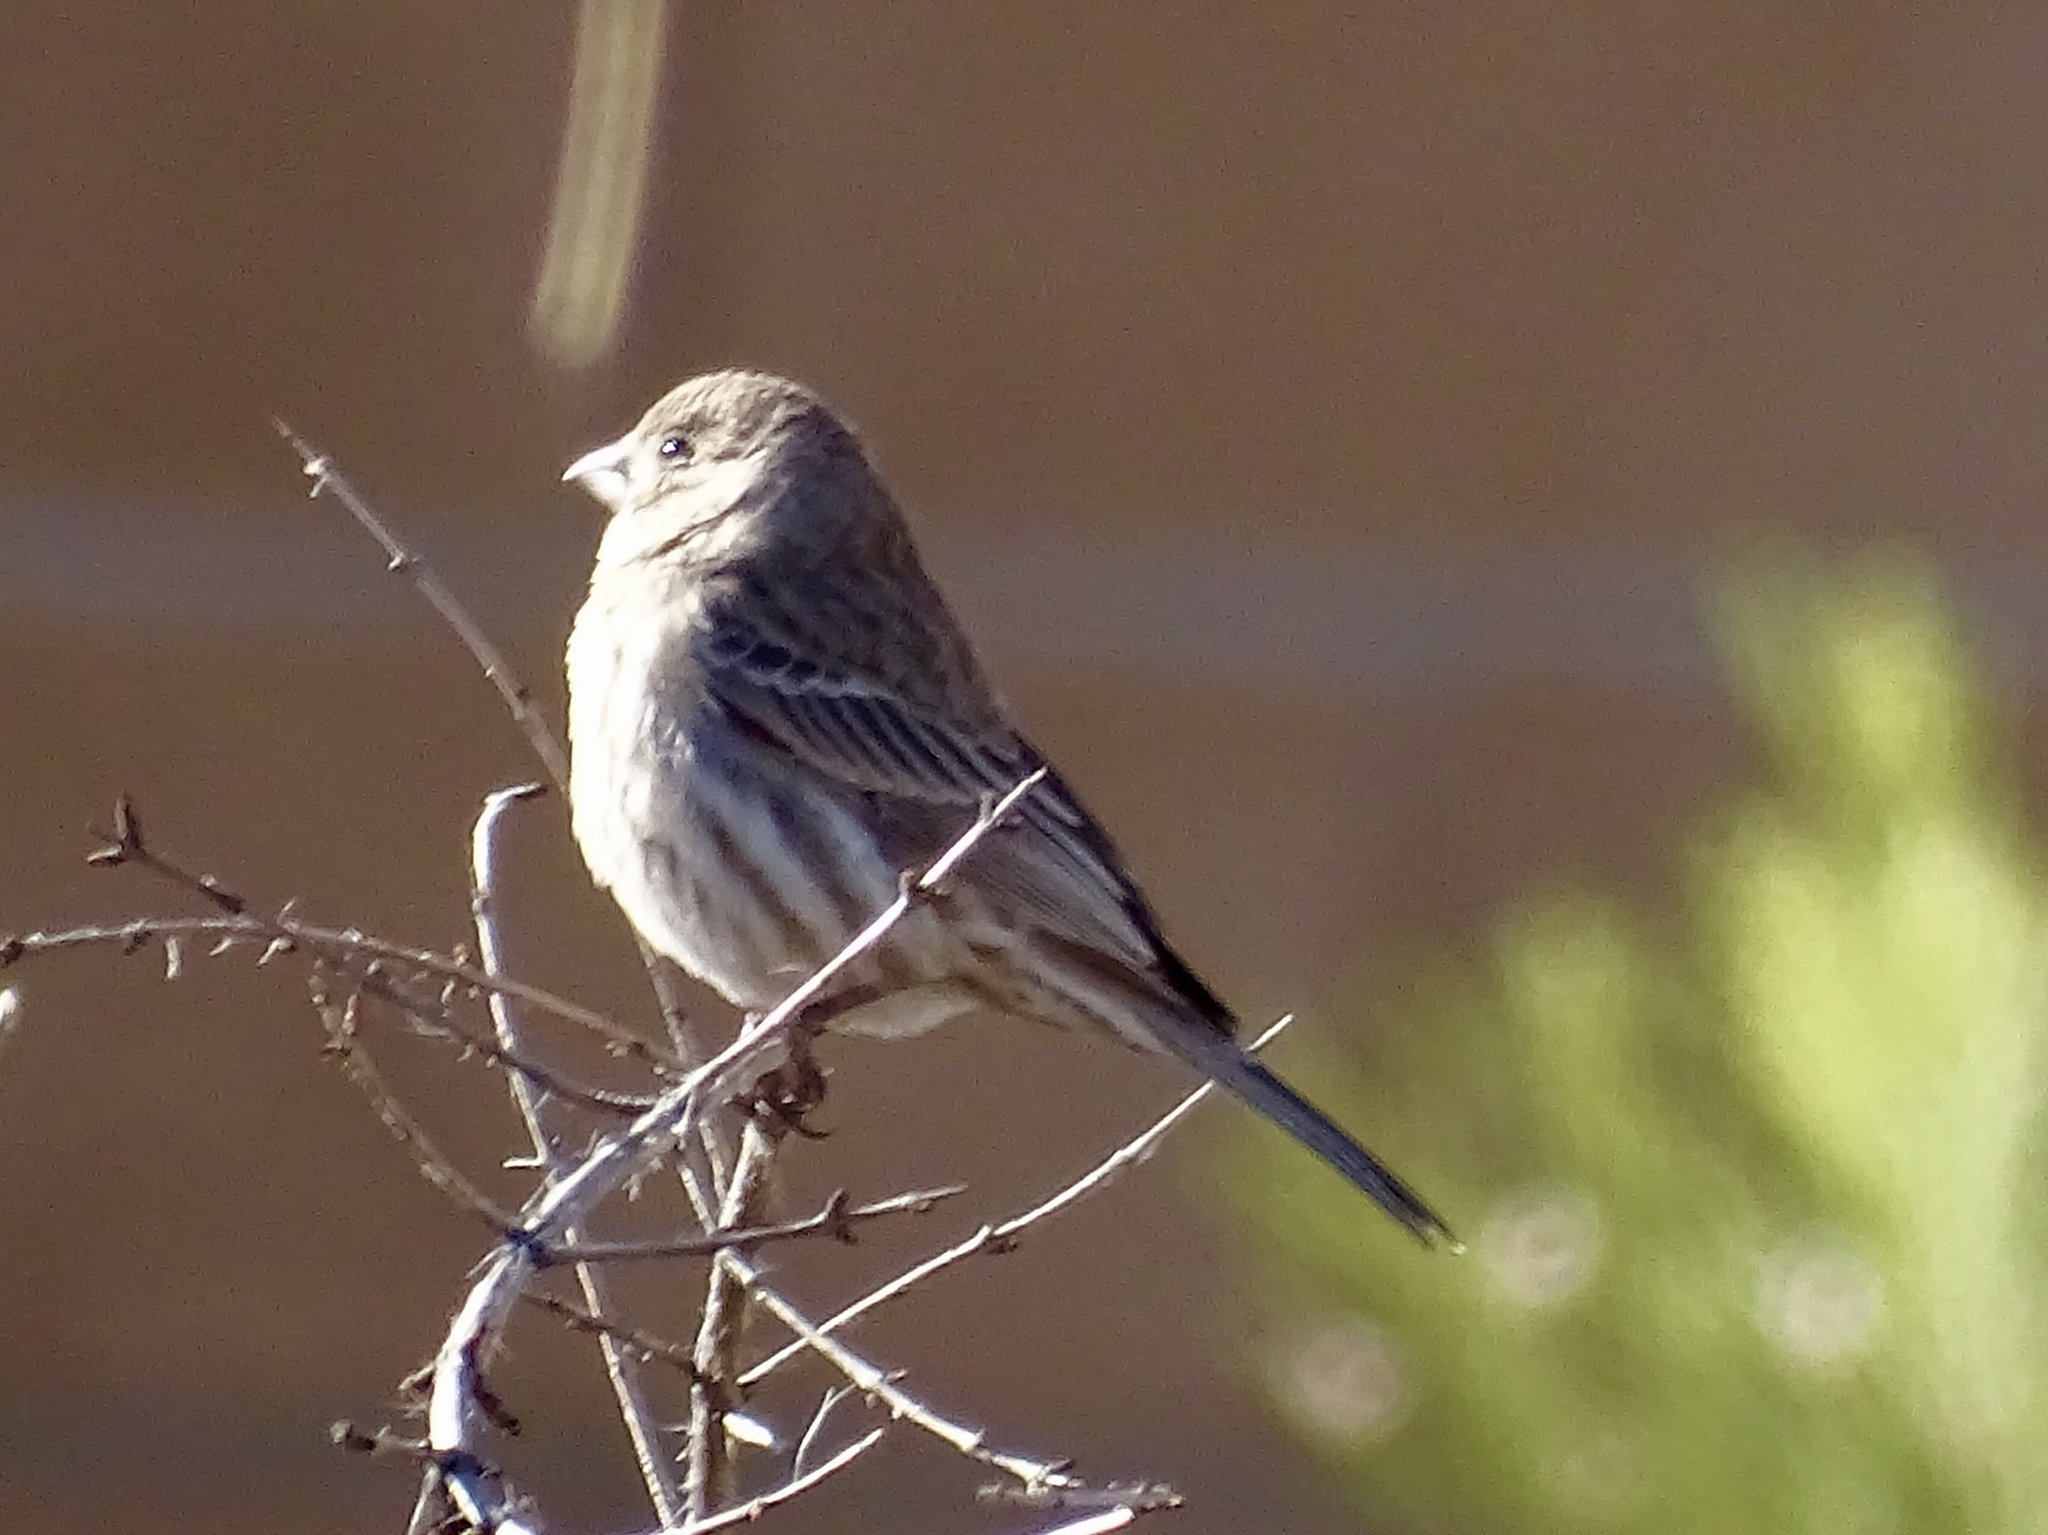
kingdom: Animalia
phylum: Chordata
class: Aves
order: Passeriformes
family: Fringillidae
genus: Haemorhous
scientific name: Haemorhous mexicanus
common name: House finch
